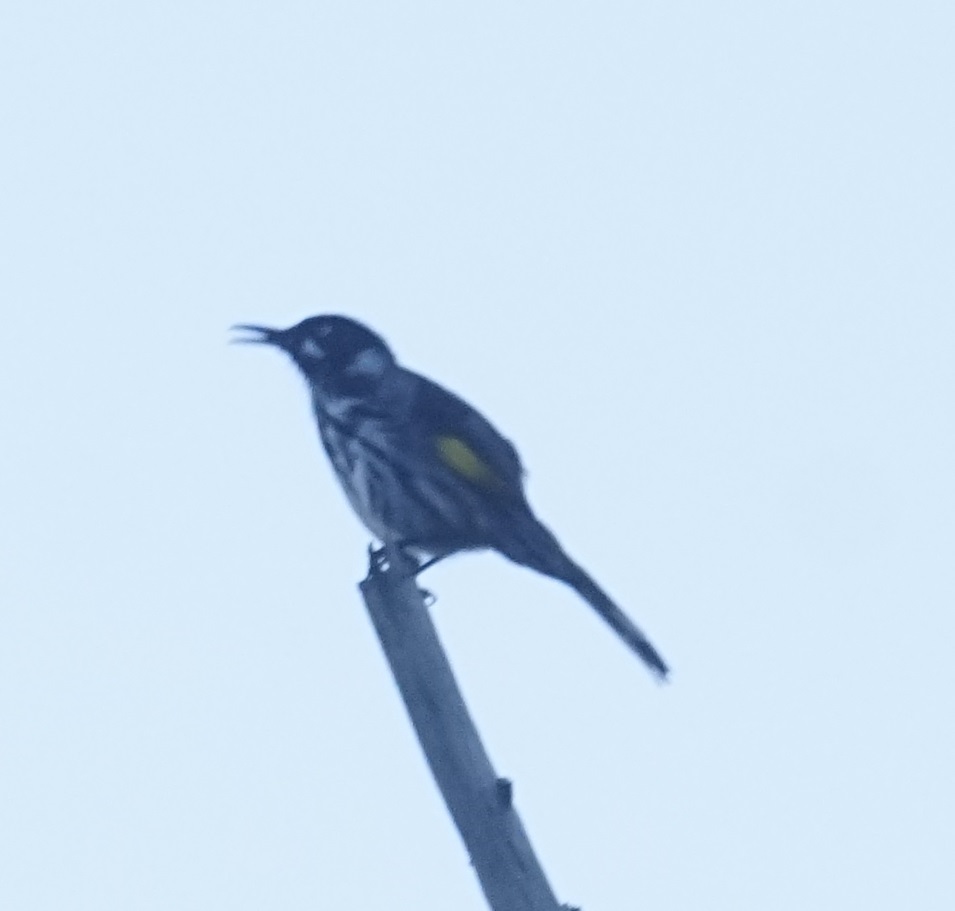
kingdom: Animalia
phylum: Chordata
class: Aves
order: Passeriformes
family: Meliphagidae
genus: Phylidonyris
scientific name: Phylidonyris novaehollandiae
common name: New holland honeyeater
